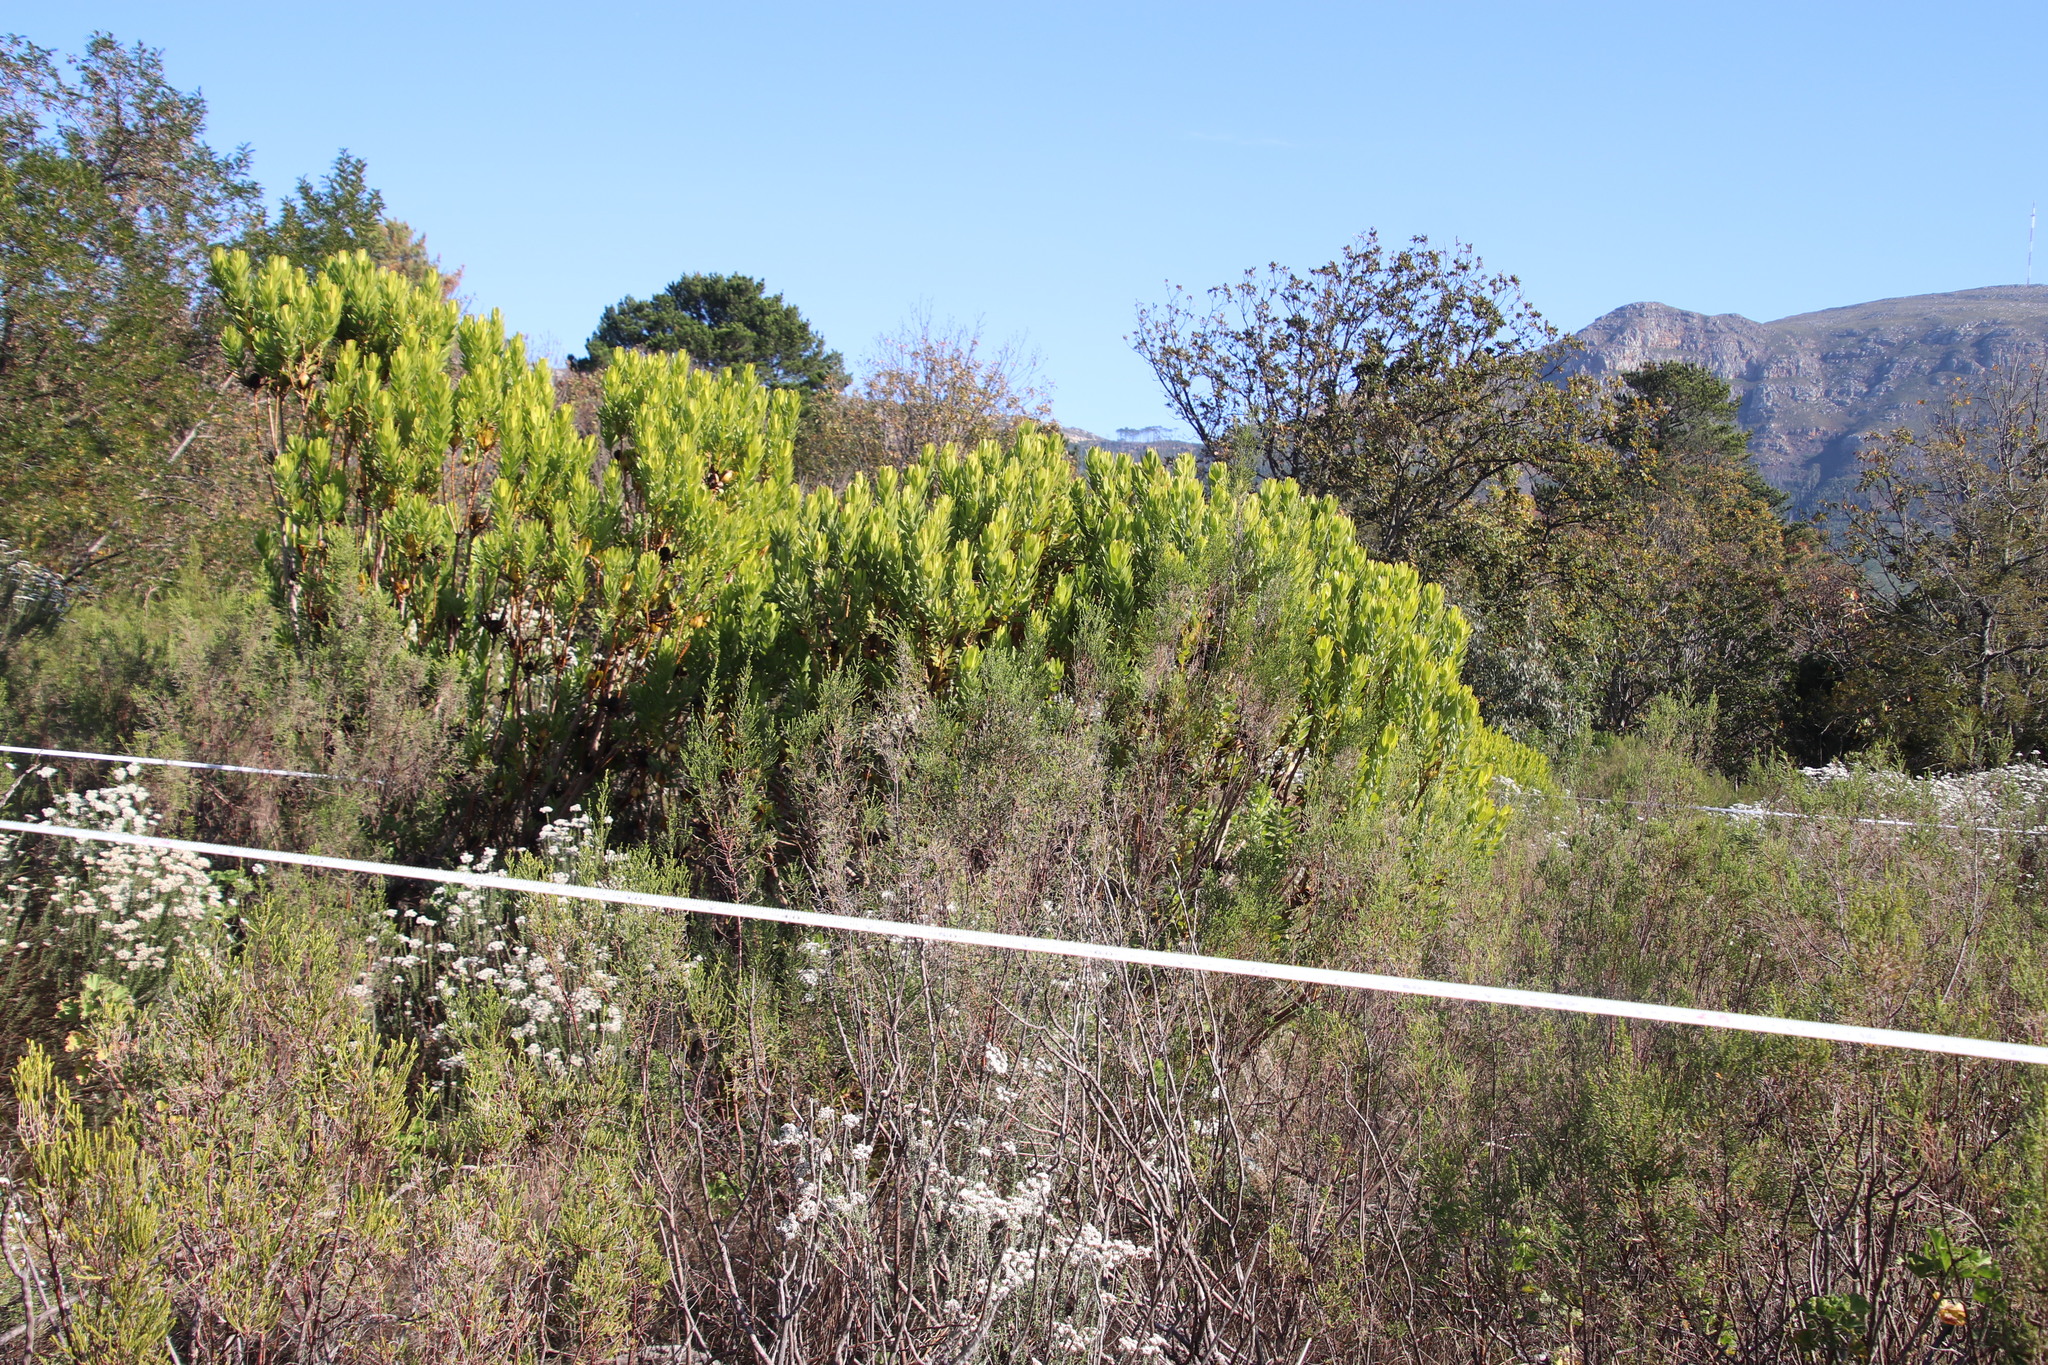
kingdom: Plantae
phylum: Tracheophyta
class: Magnoliopsida
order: Proteales
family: Proteaceae
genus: Leucadendron
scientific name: Leucadendron laureolum
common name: Golden sunshinebush
